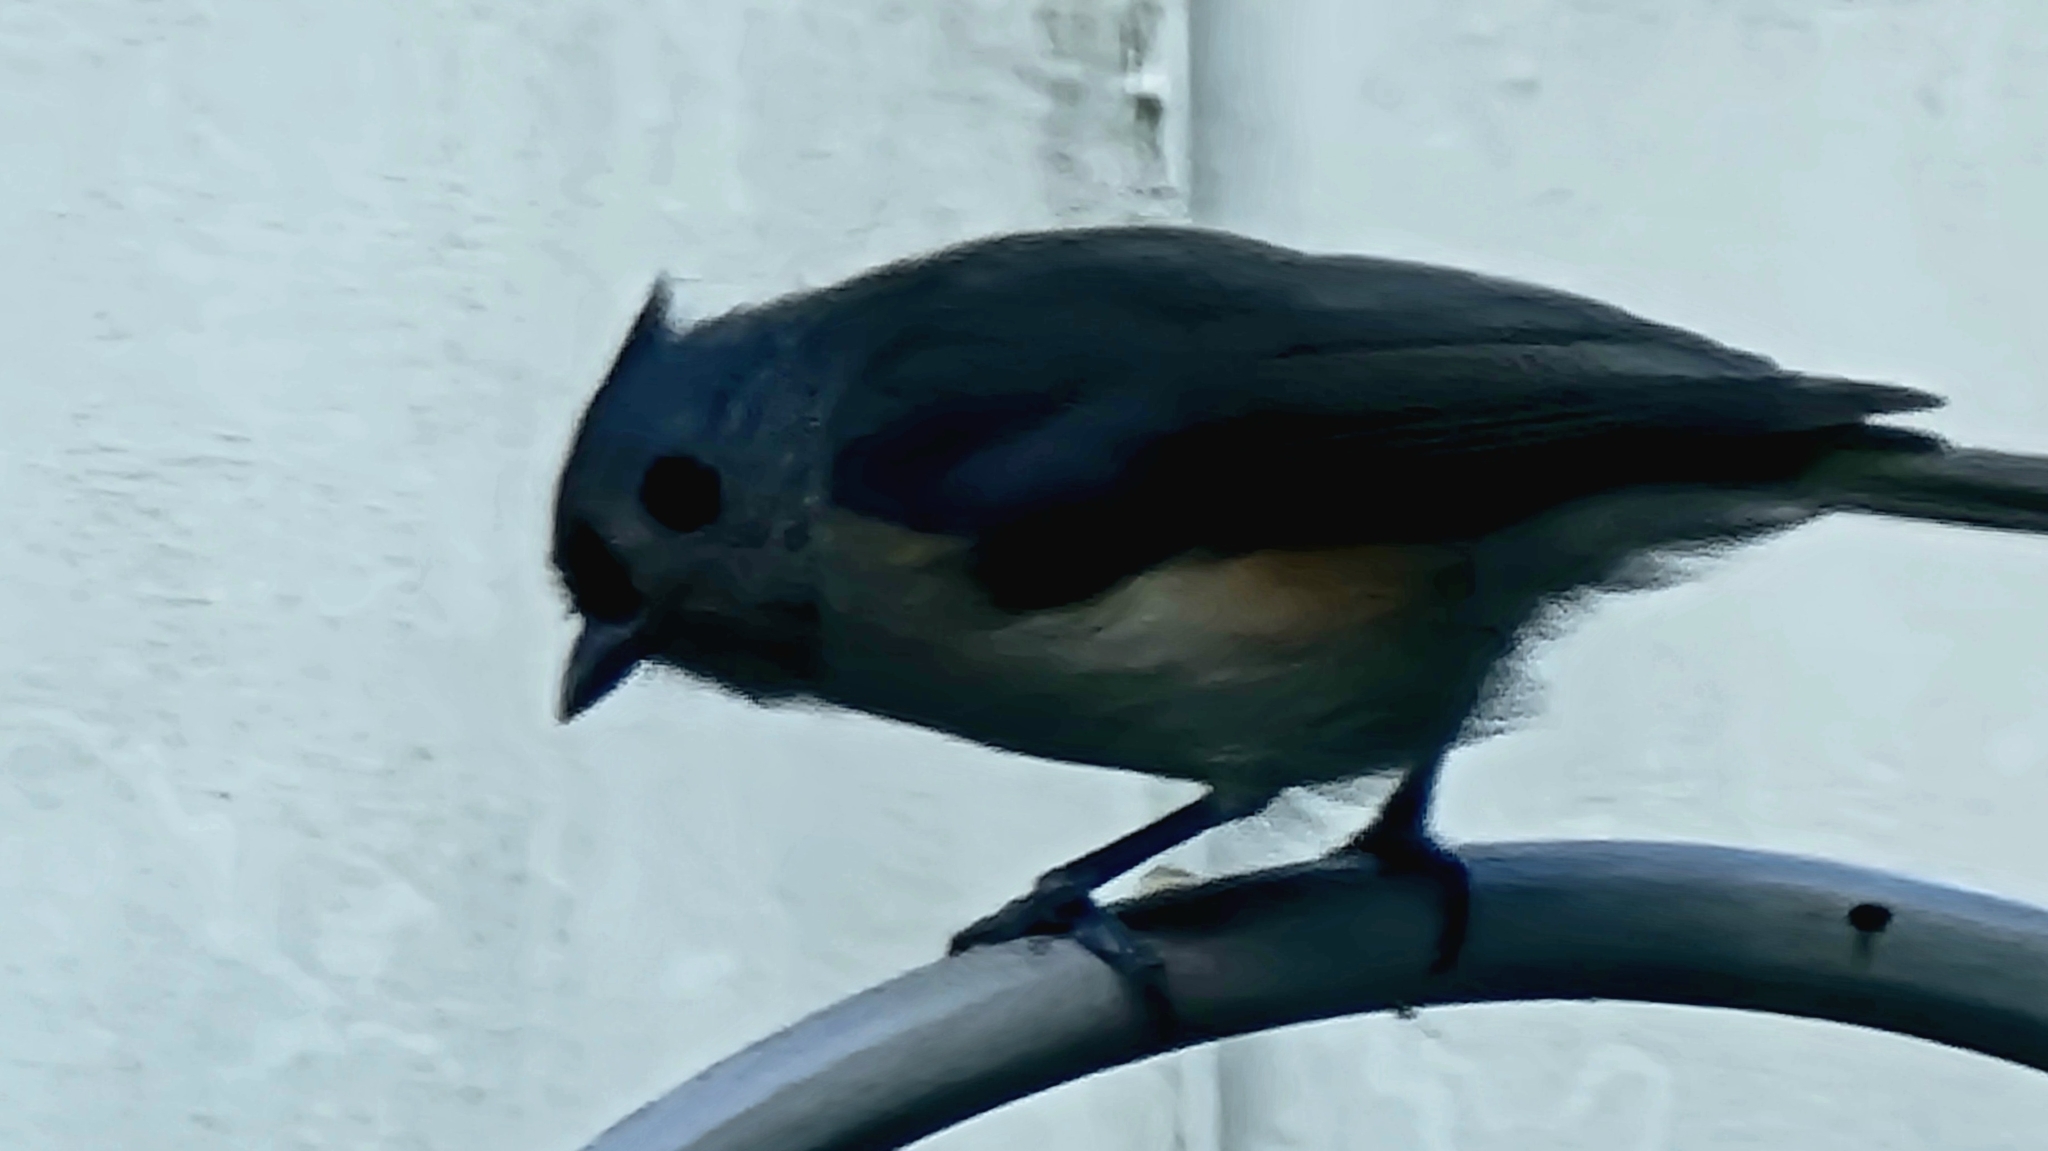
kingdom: Animalia
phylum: Chordata
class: Aves
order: Passeriformes
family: Paridae
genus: Baeolophus
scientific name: Baeolophus bicolor
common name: Tufted titmouse
